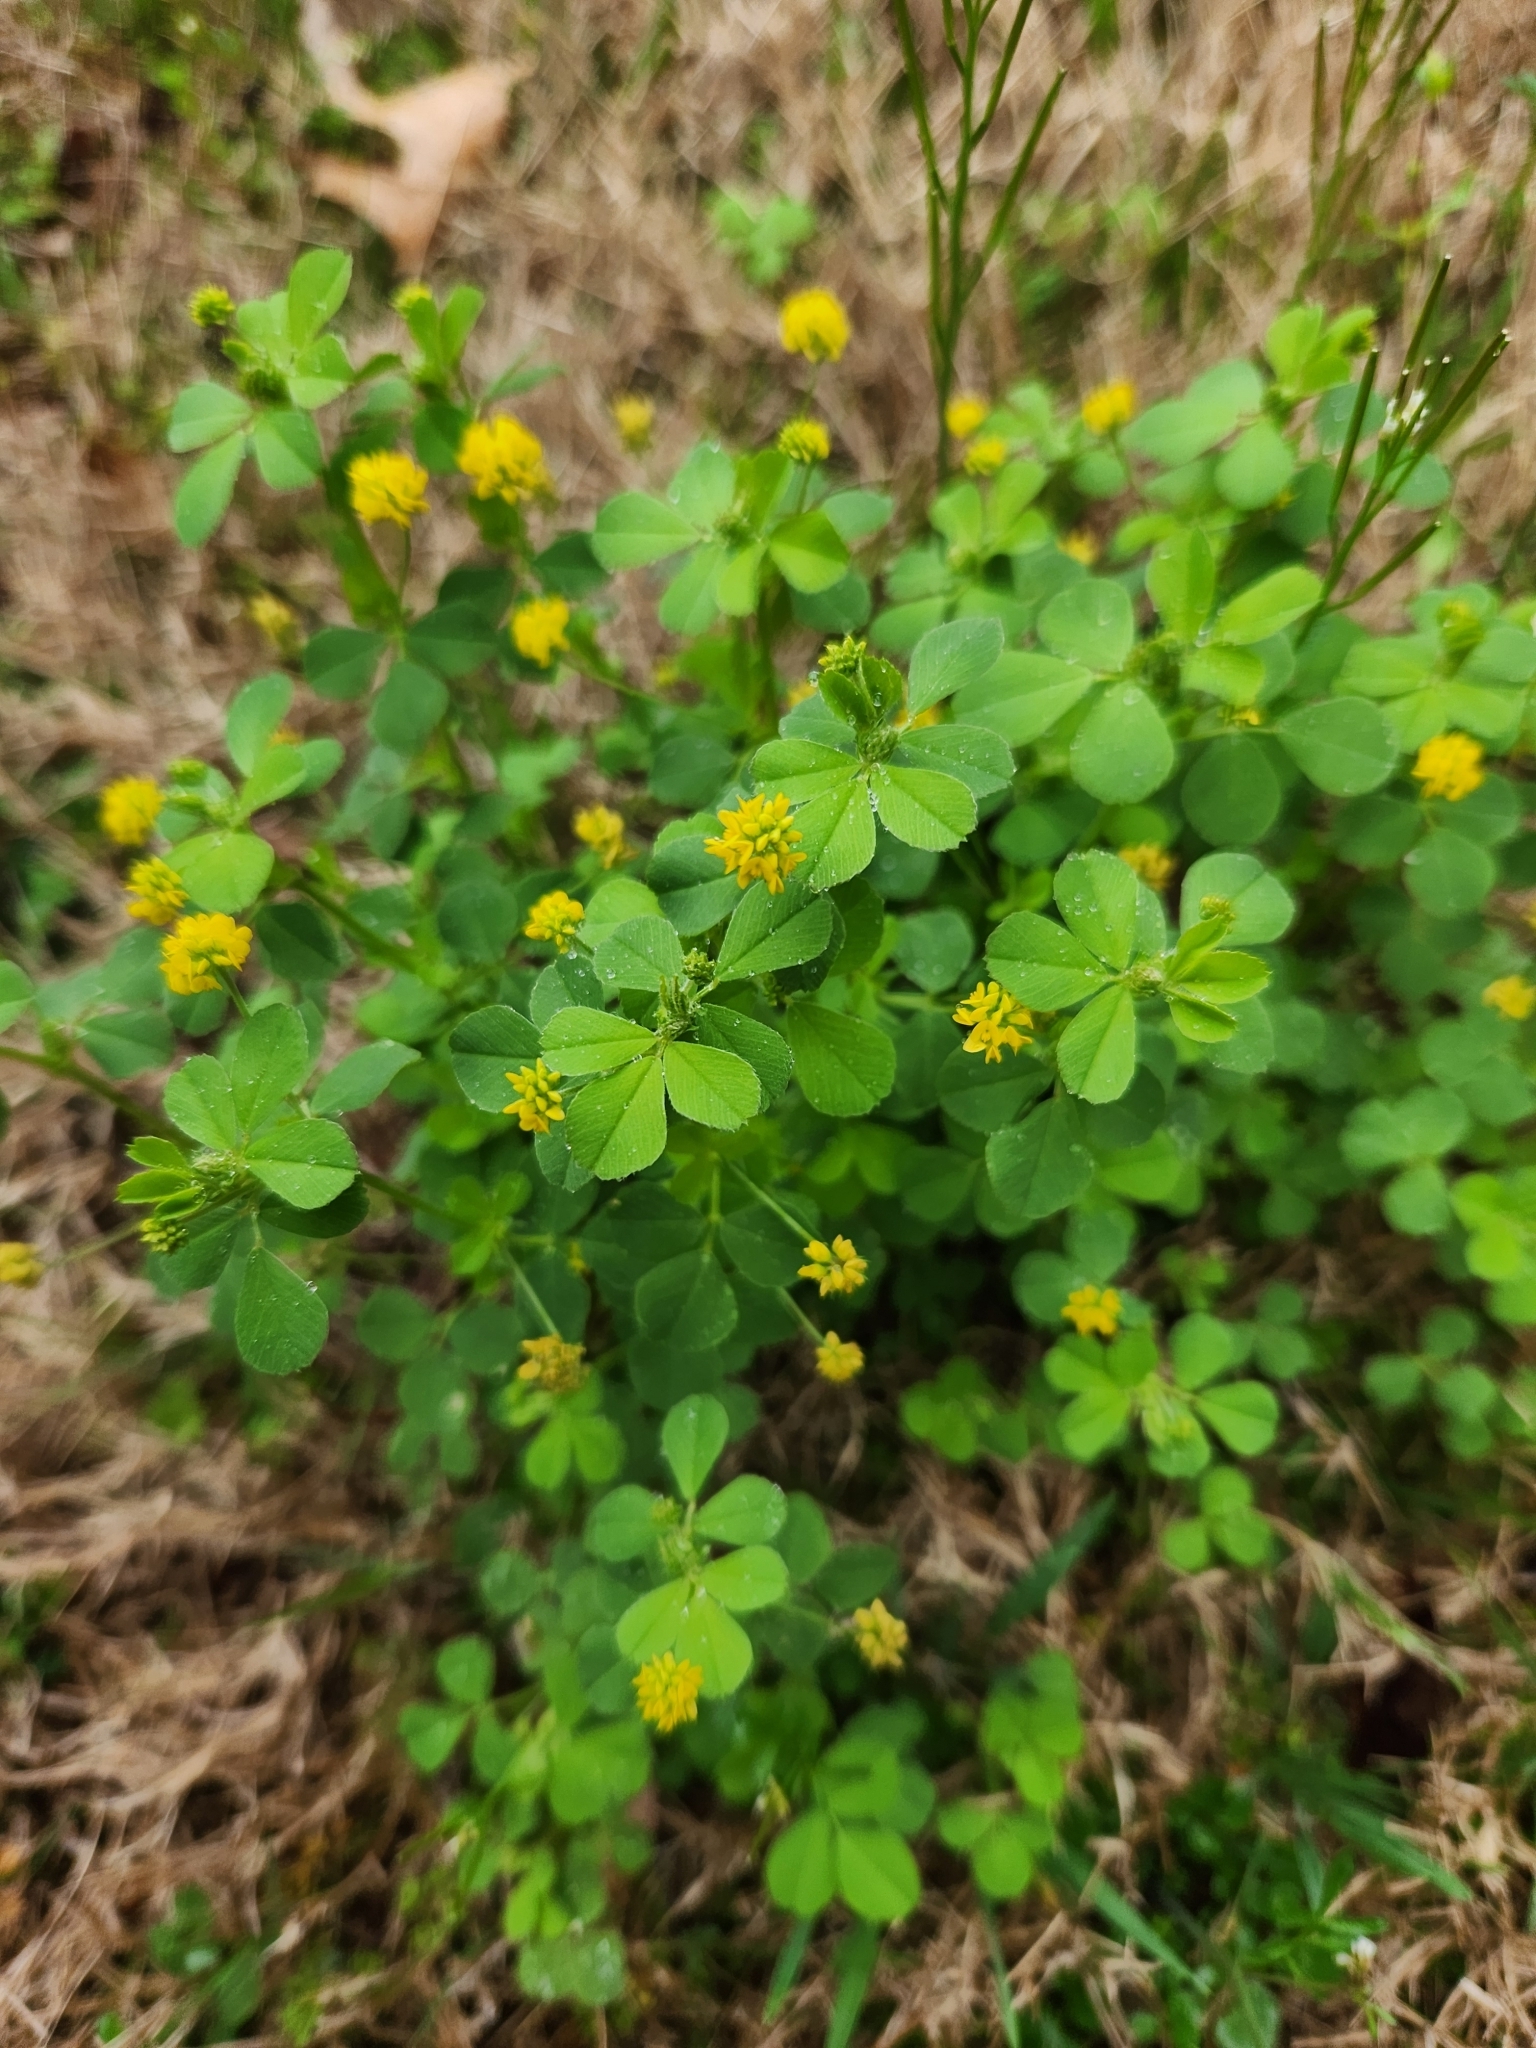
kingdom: Plantae
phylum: Tracheophyta
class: Magnoliopsida
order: Fabales
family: Fabaceae
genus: Medicago
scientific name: Medicago lupulina
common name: Black medick
